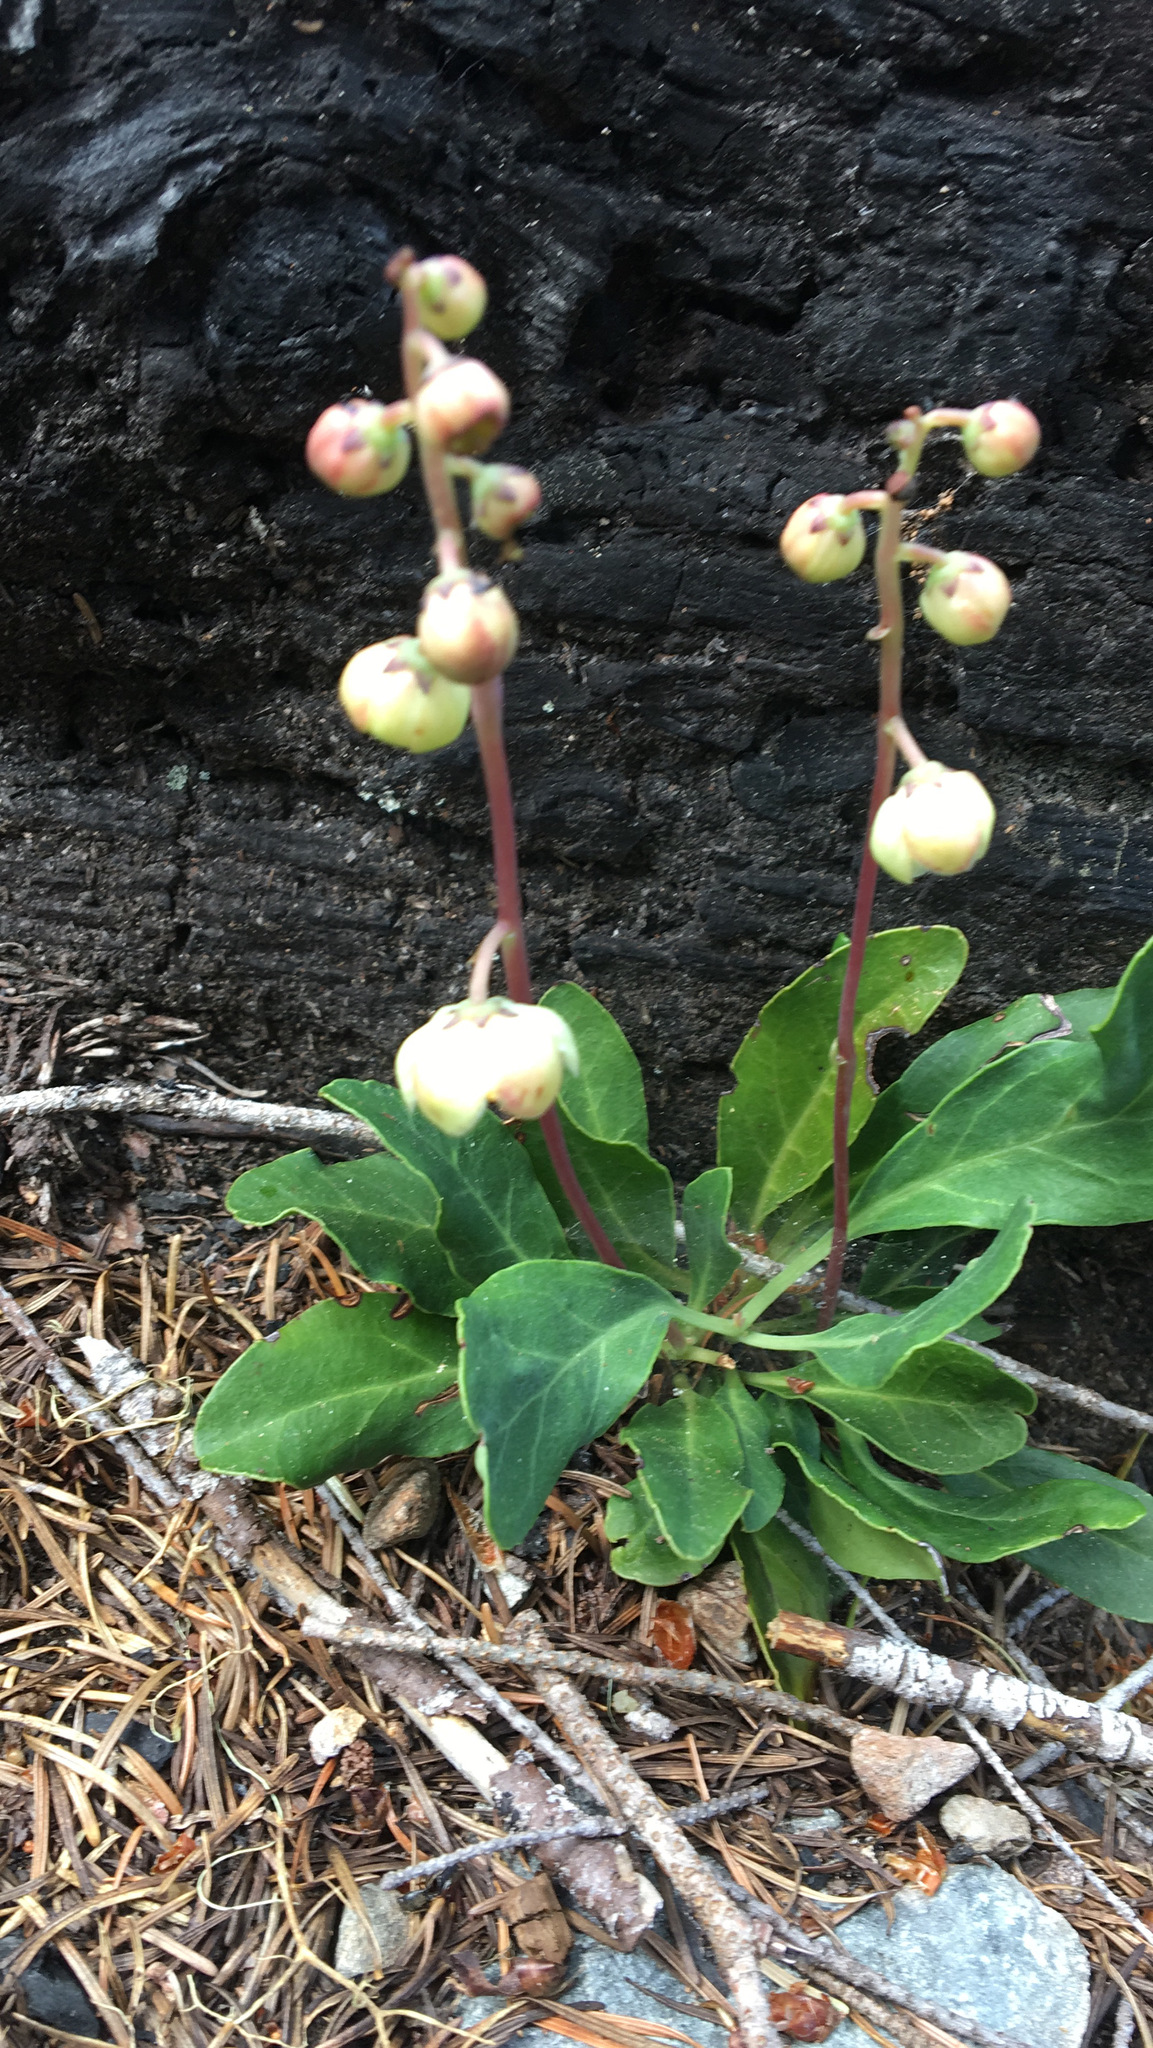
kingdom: Plantae
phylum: Tracheophyta
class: Magnoliopsida
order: Ericales
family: Ericaceae
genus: Pyrola
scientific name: Pyrola dentata
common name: Tooth-leaved wintergreen
